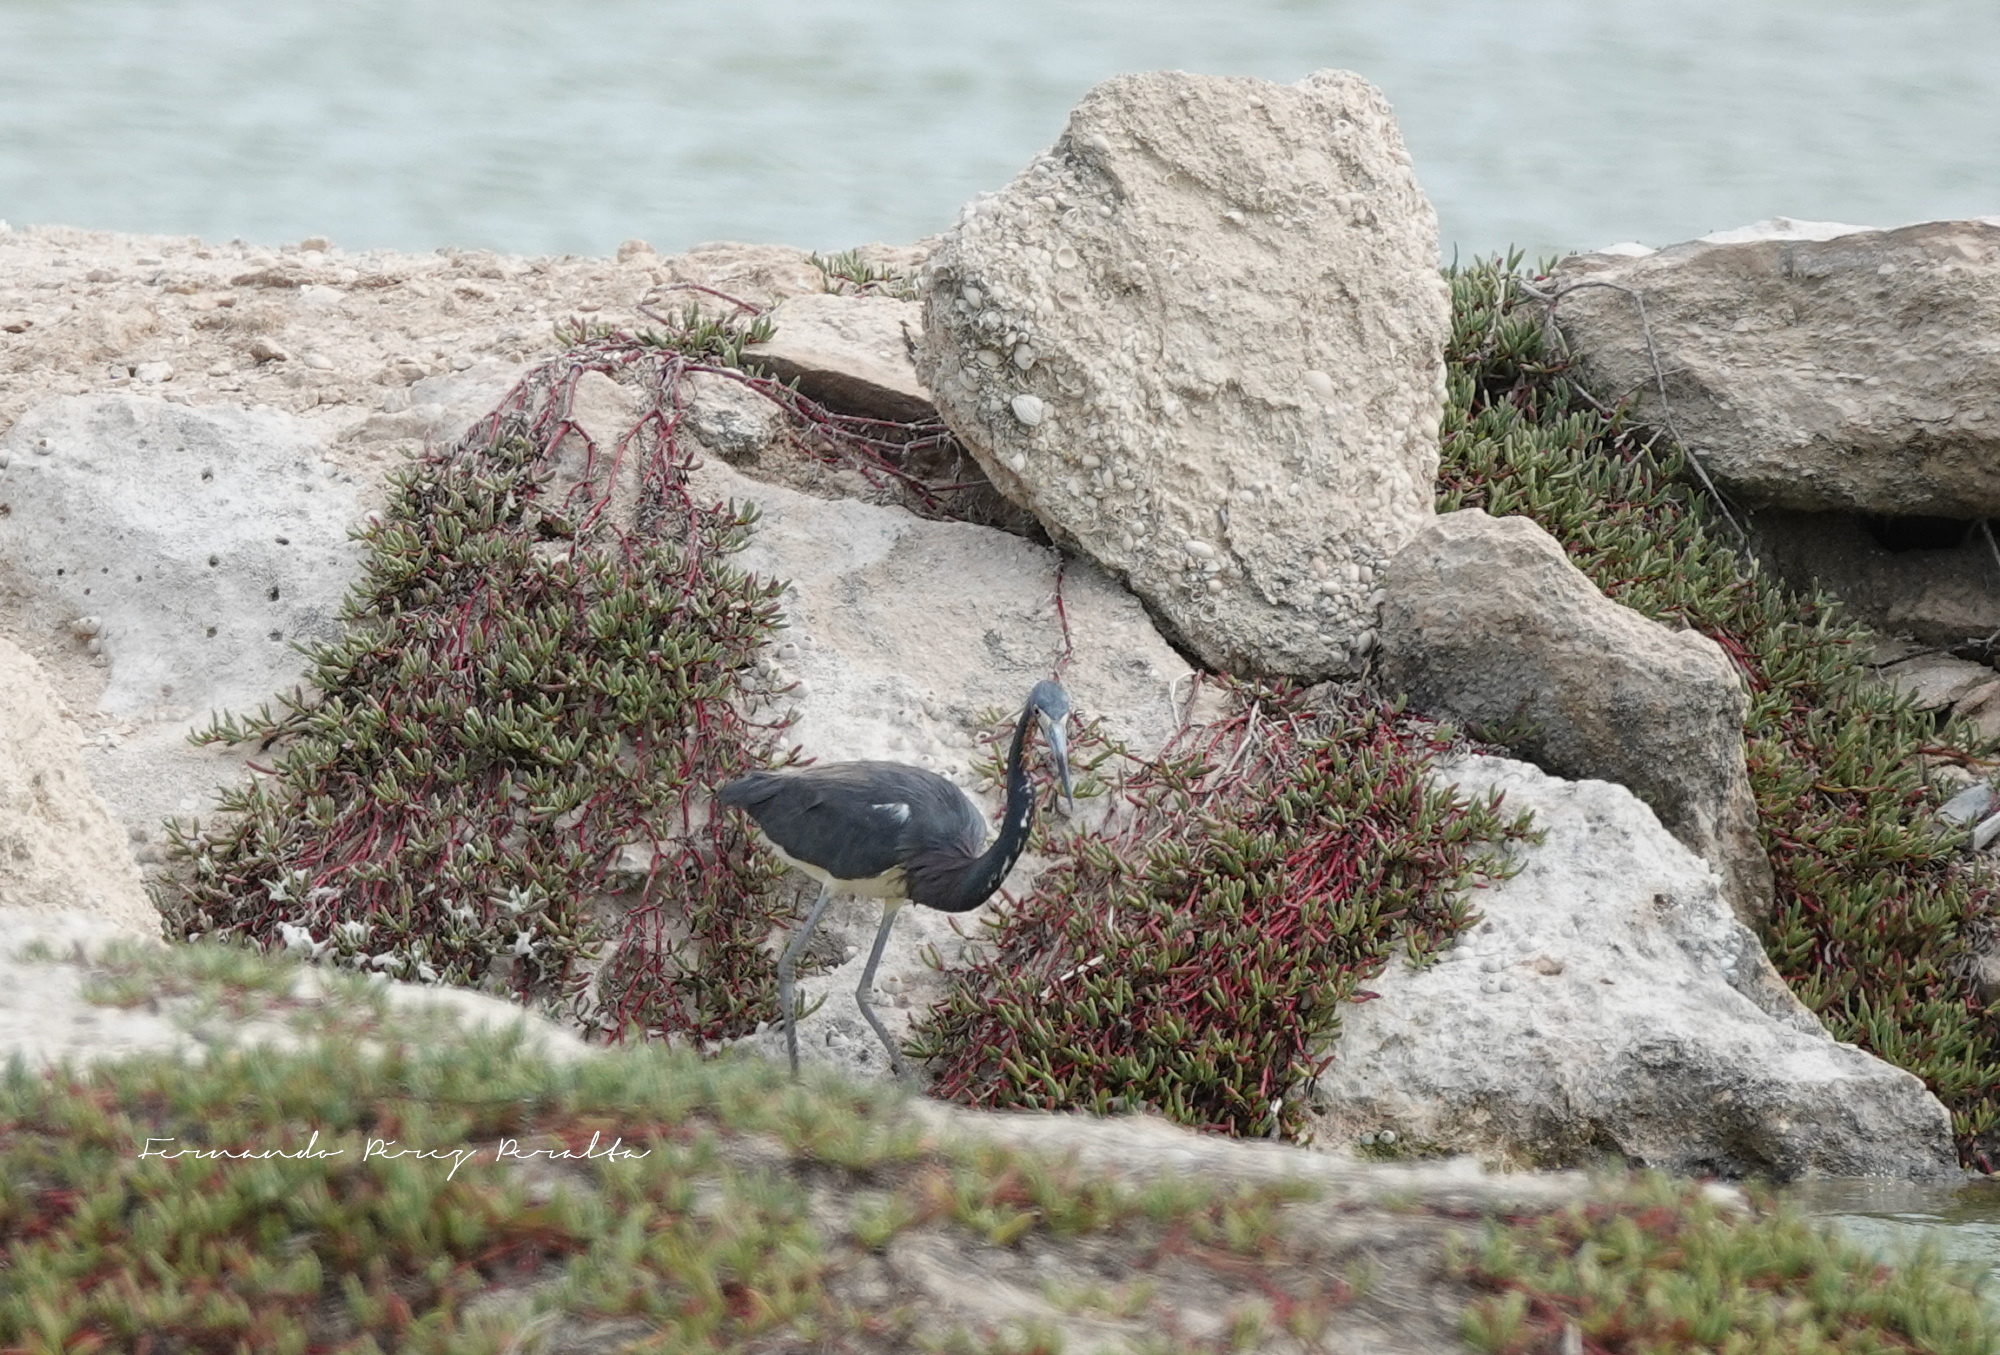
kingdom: Animalia
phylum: Chordata
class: Aves
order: Pelecaniformes
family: Ardeidae
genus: Egretta
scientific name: Egretta tricolor
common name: Tricolored heron
